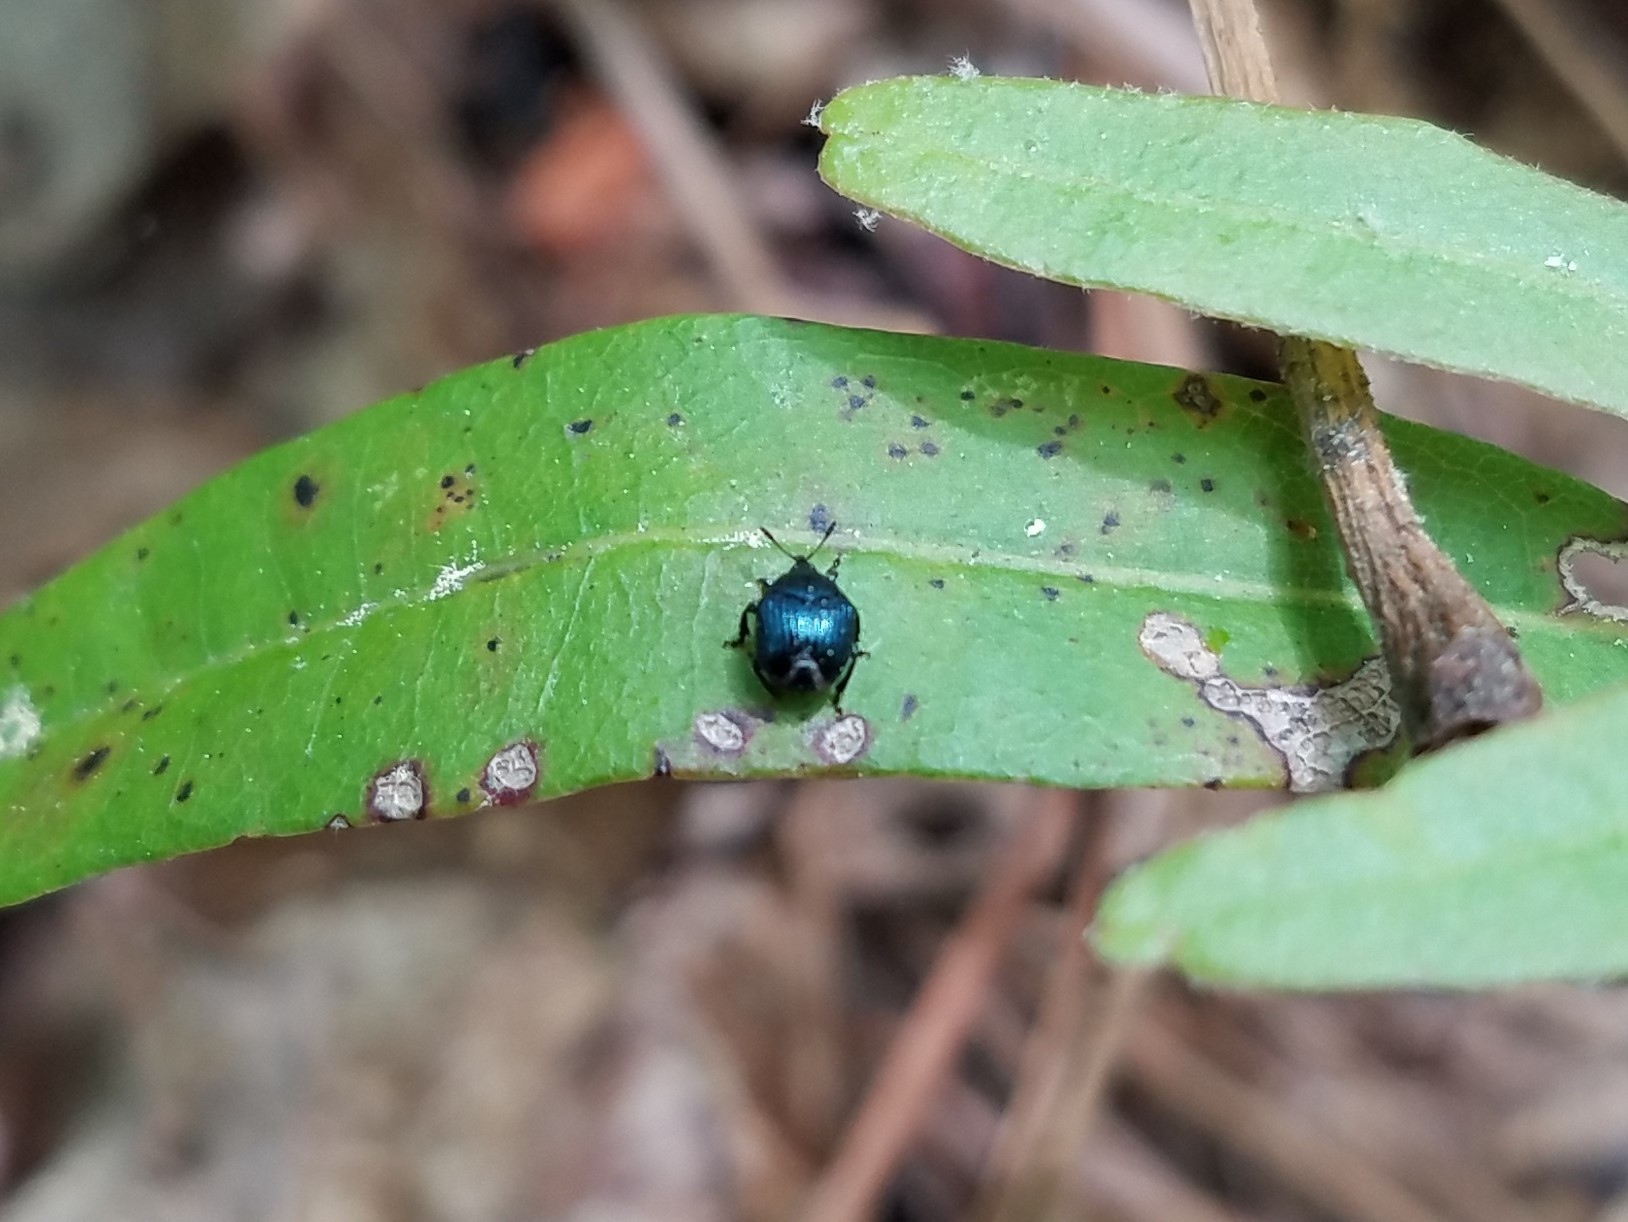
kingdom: Animalia
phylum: Arthropoda
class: Insecta
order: Coleoptera
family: Attelabidae
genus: Pterocolus
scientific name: Pterocolus ovatus
